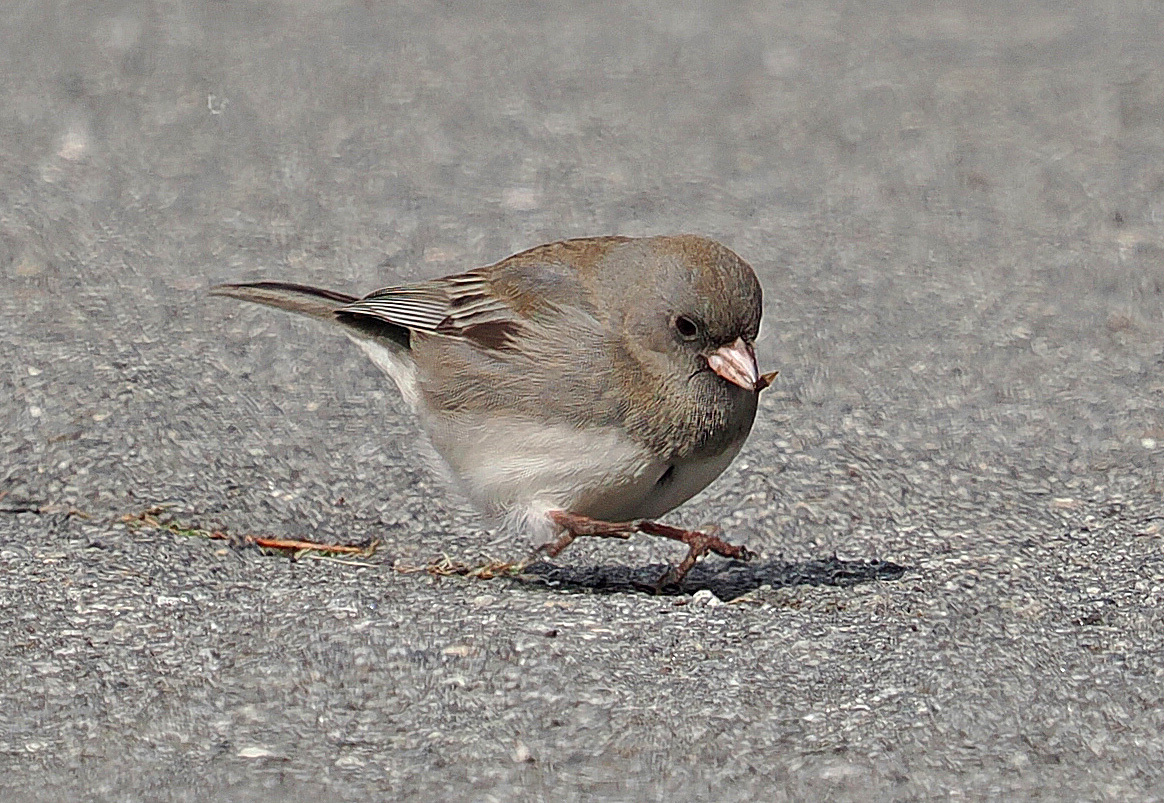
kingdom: Animalia
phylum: Chordata
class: Aves
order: Passeriformes
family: Passerellidae
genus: Junco
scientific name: Junco hyemalis
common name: Dark-eyed junco
